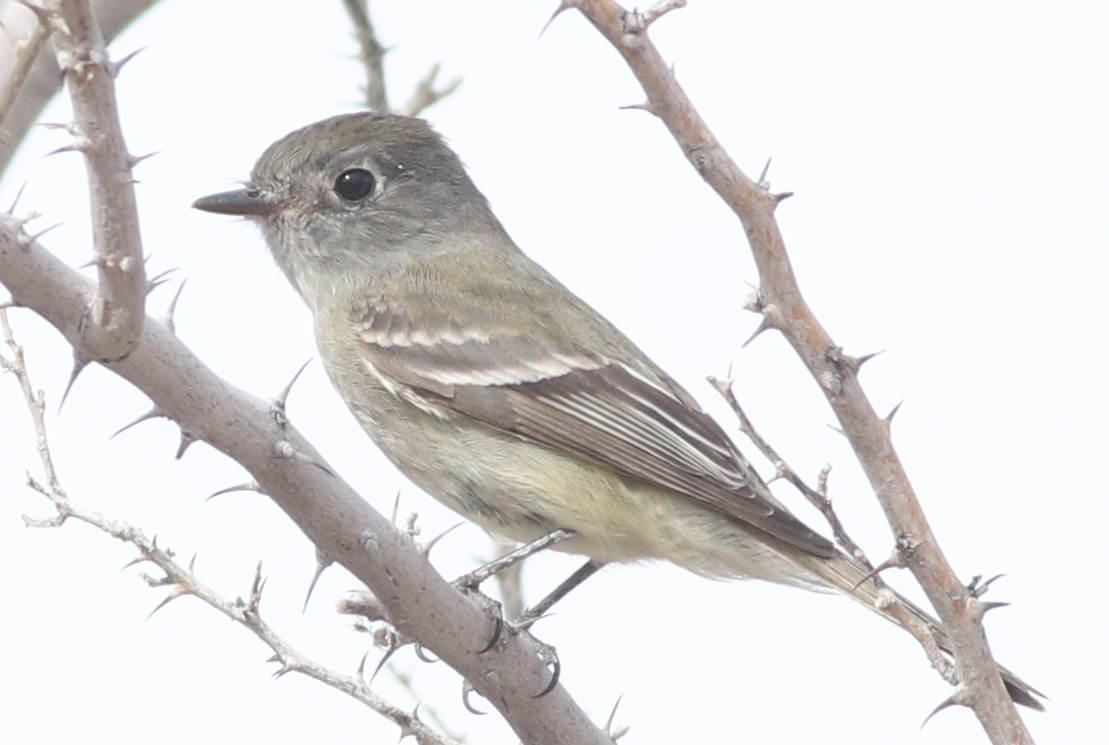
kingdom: Animalia
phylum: Chordata
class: Aves
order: Passeriformes
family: Tyrannidae
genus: Empidonax
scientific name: Empidonax hammondii
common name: Hammond's flycatcher
